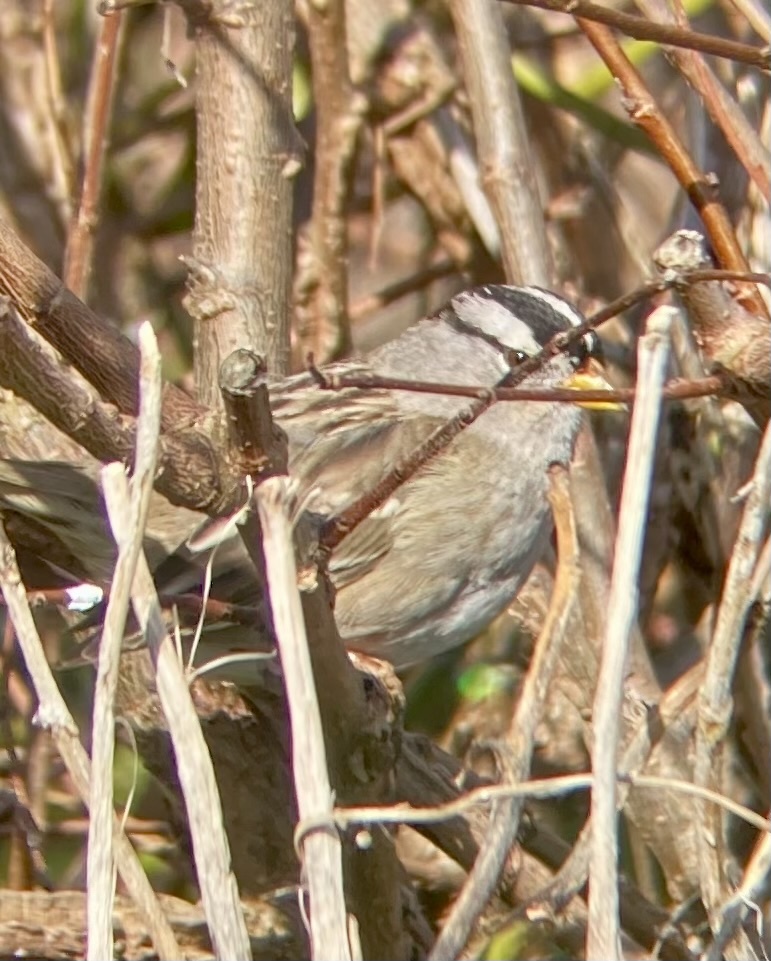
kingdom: Animalia
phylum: Chordata
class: Aves
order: Passeriformes
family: Passerellidae
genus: Zonotrichia
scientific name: Zonotrichia leucophrys
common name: White-crowned sparrow
